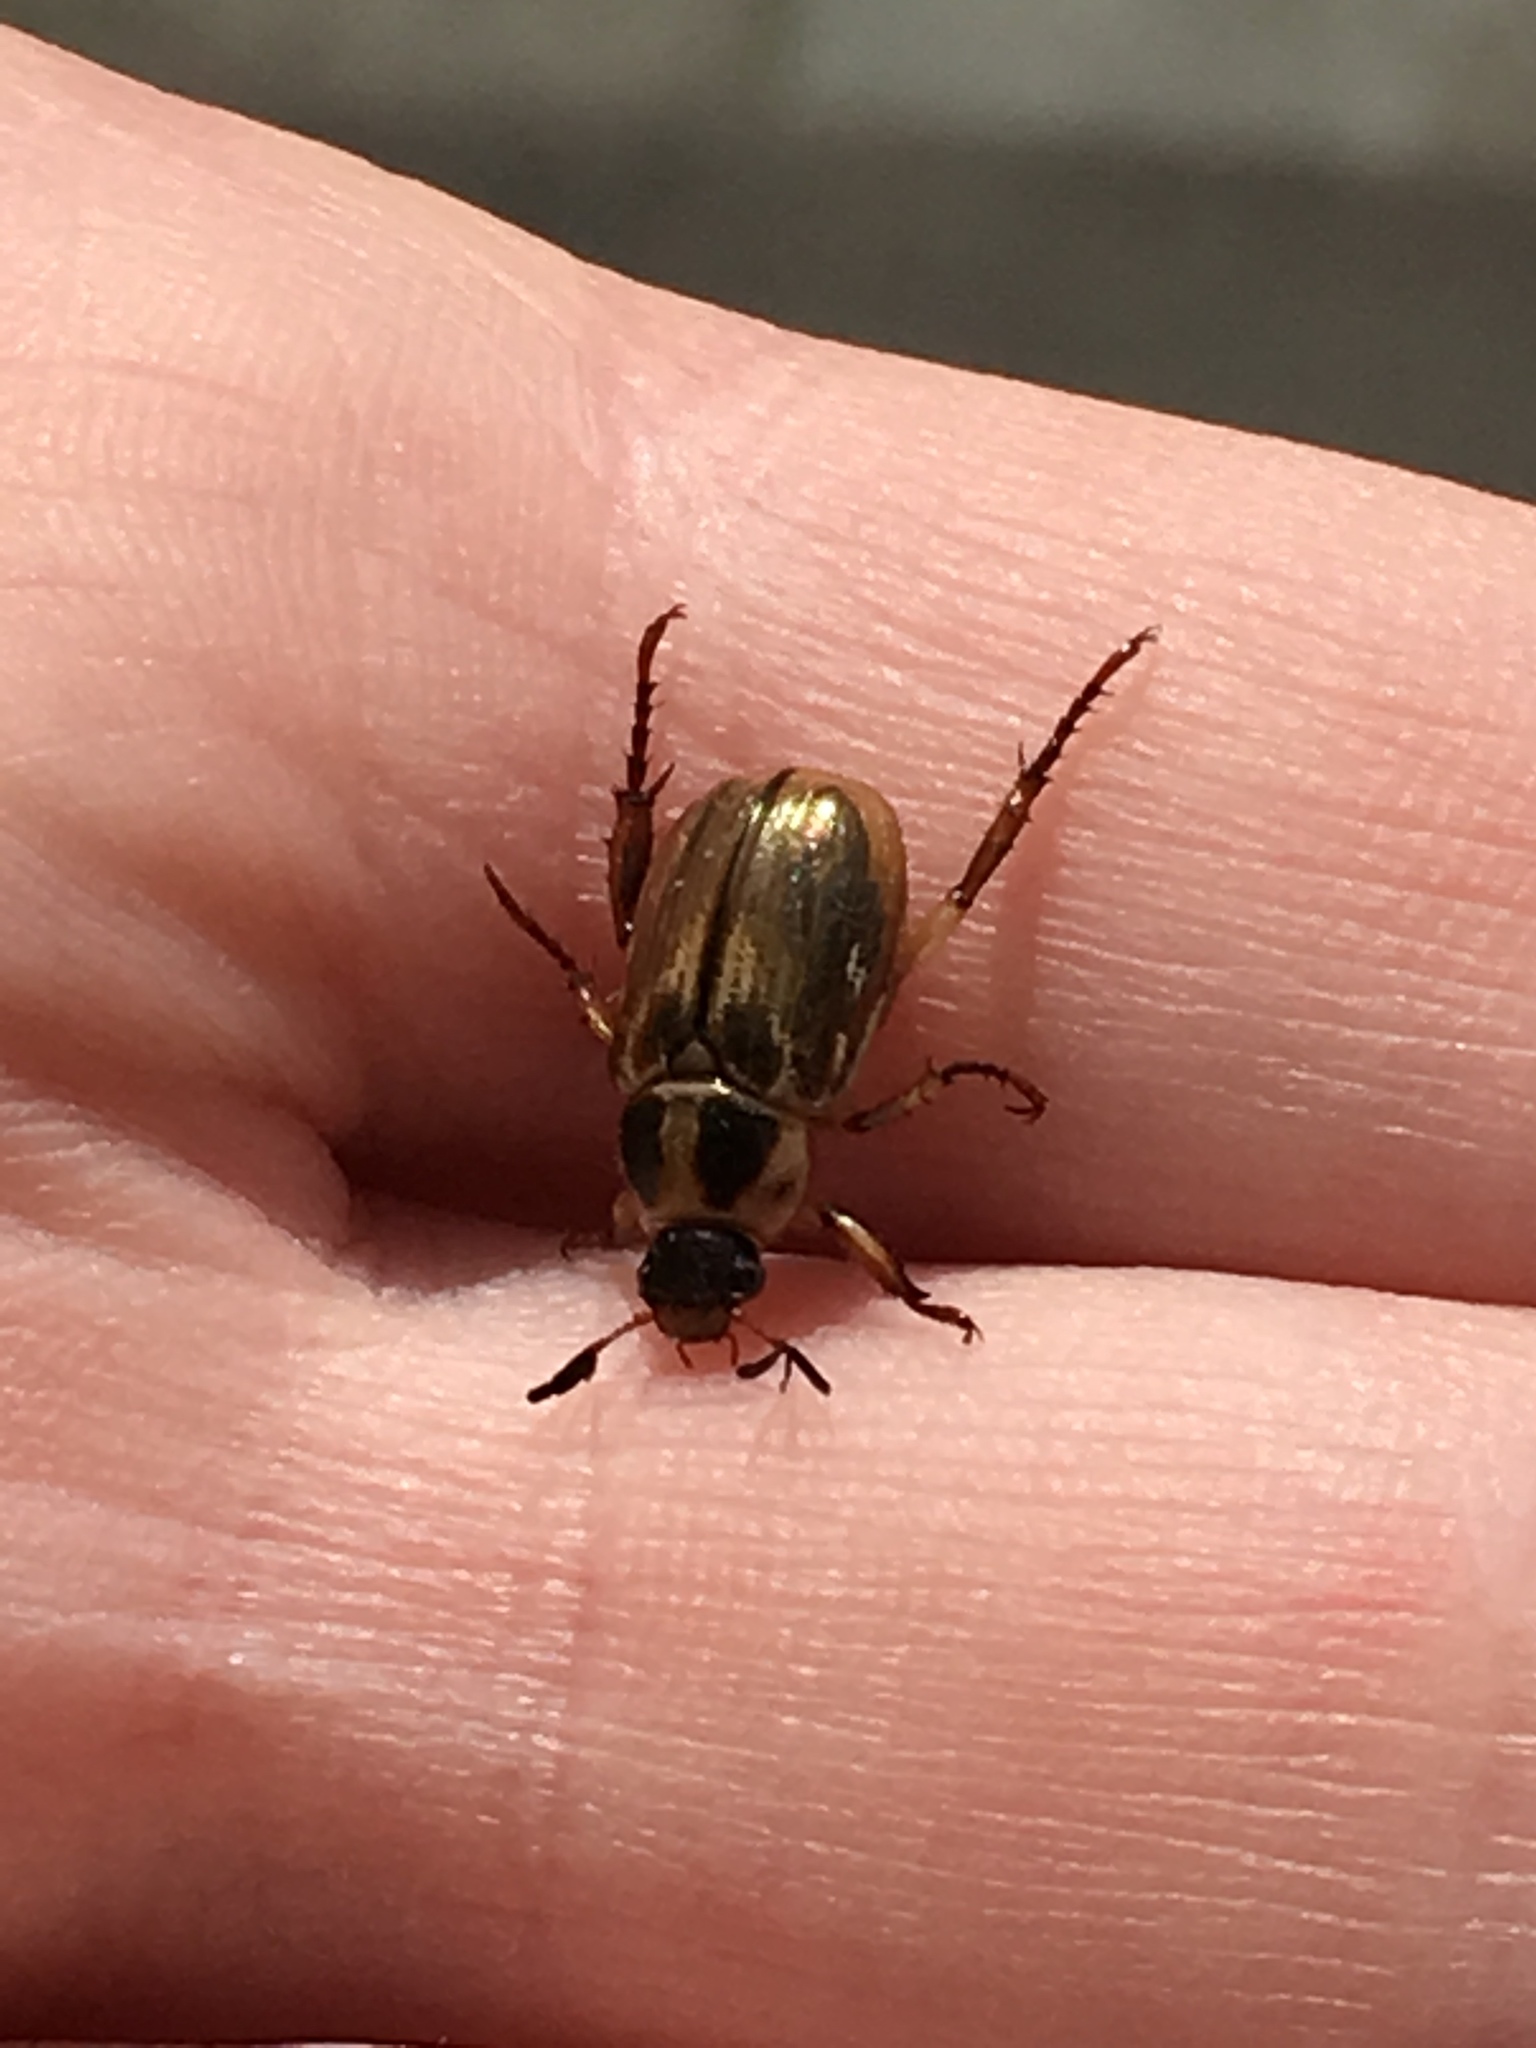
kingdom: Animalia
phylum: Arthropoda
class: Insecta
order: Coleoptera
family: Scarabaeidae
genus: Exomala
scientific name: Exomala orientalis
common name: Oriental beetle
